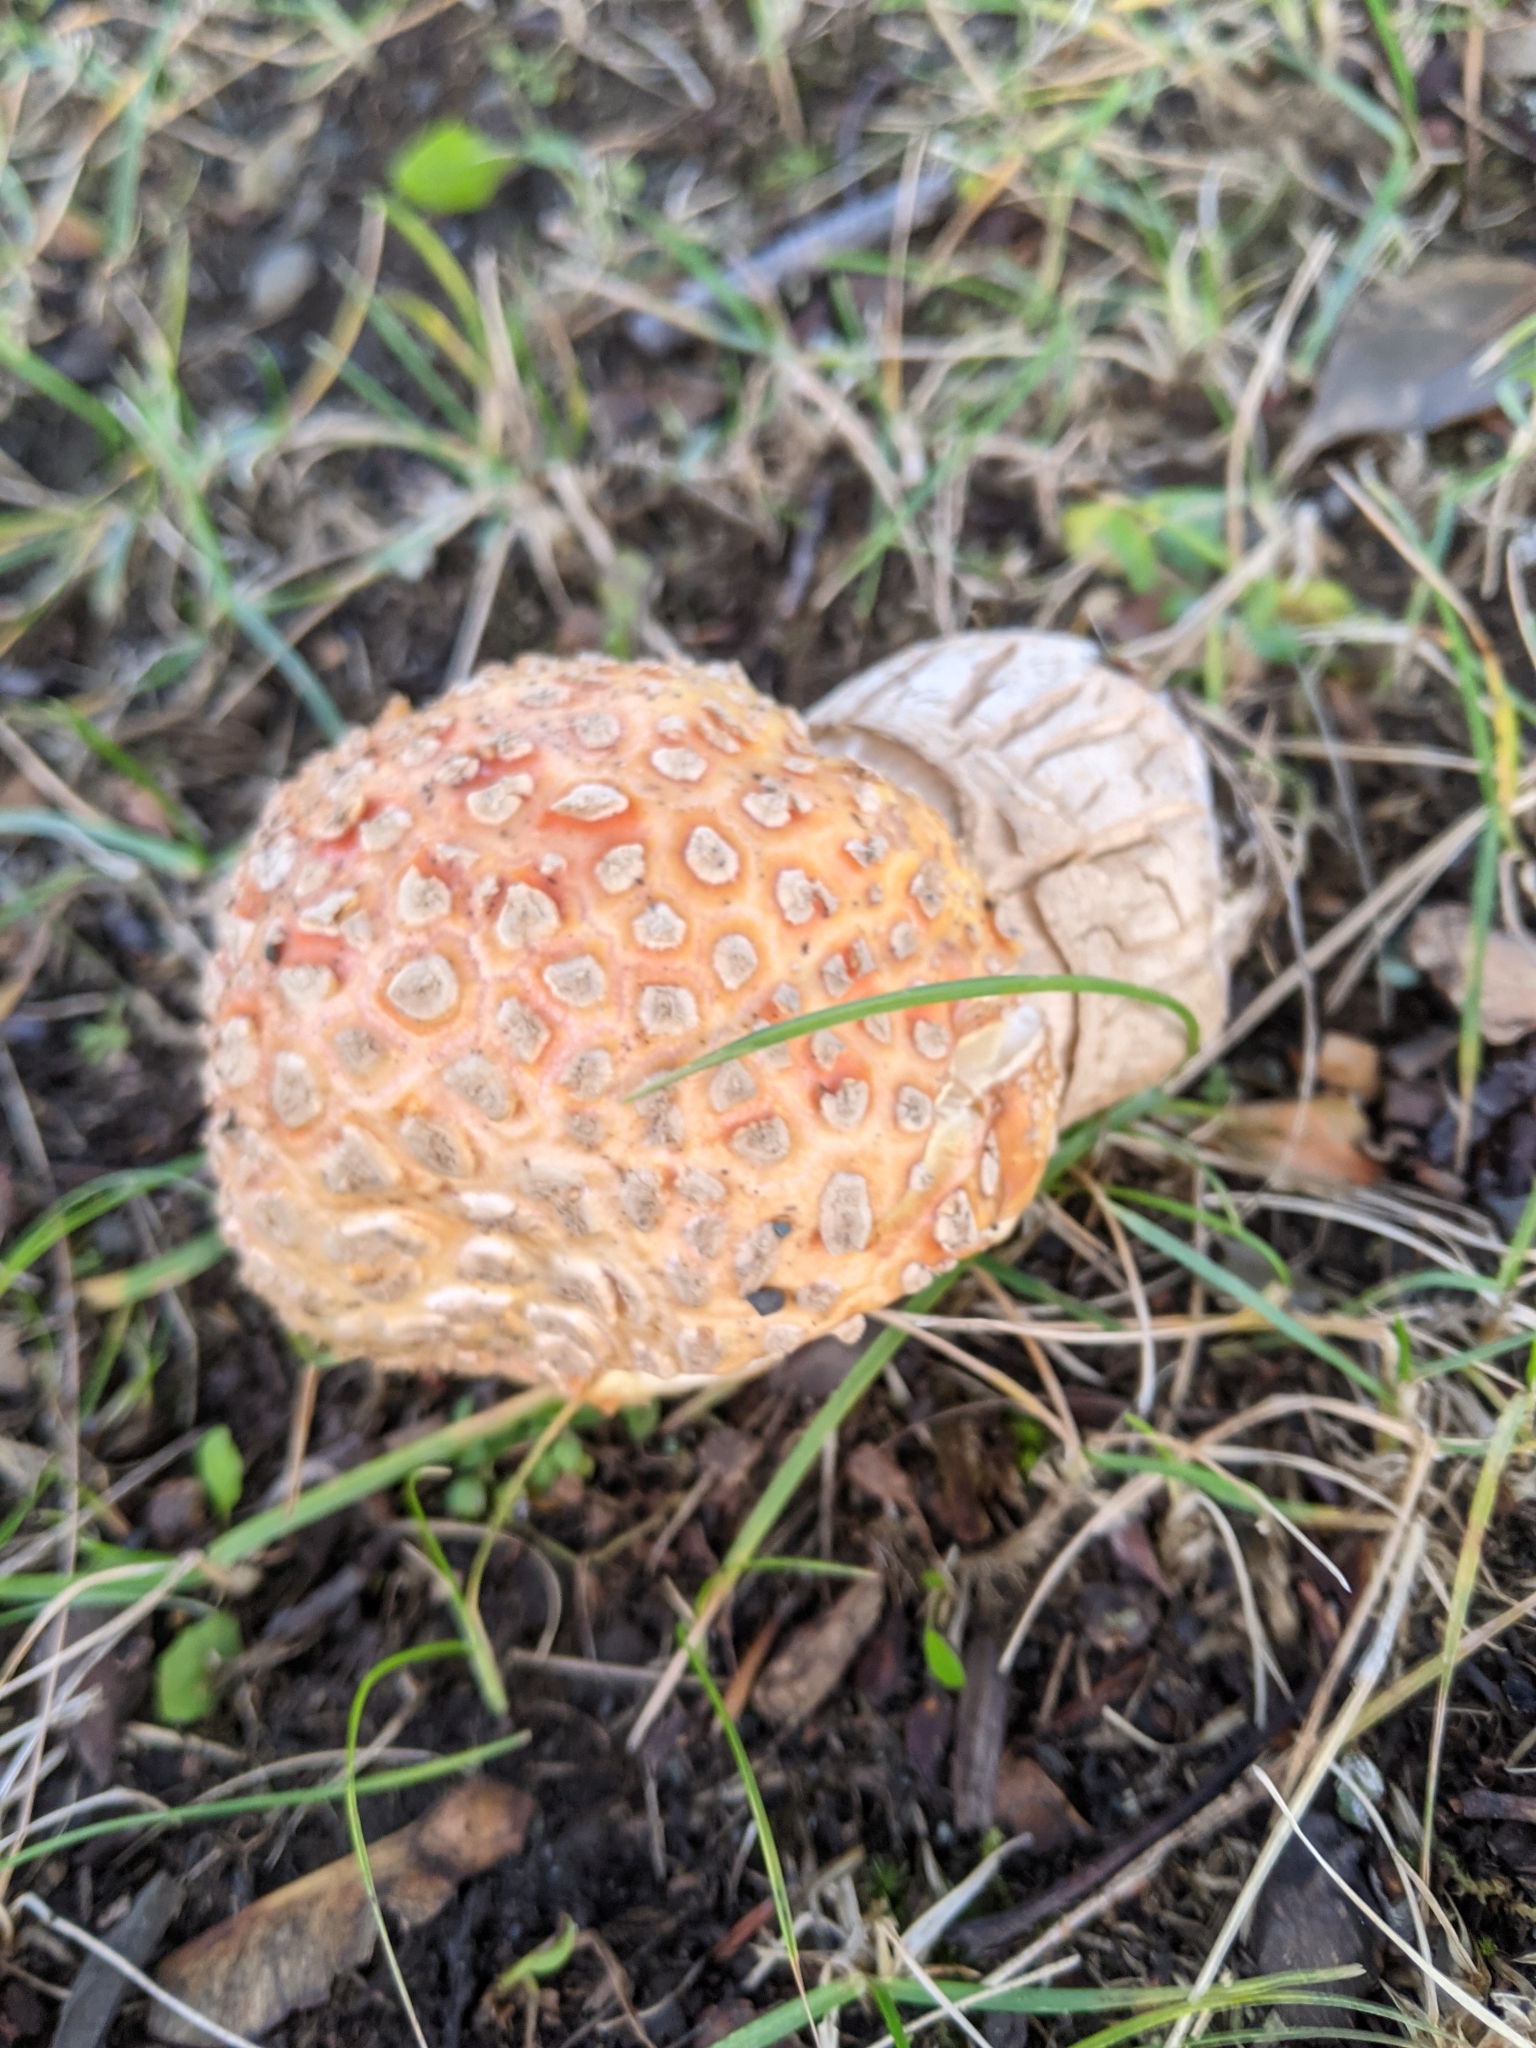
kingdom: Fungi
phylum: Basidiomycota
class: Agaricomycetes
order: Agaricales
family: Amanitaceae
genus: Amanita
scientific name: Amanita muscaria
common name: Fly agaric
